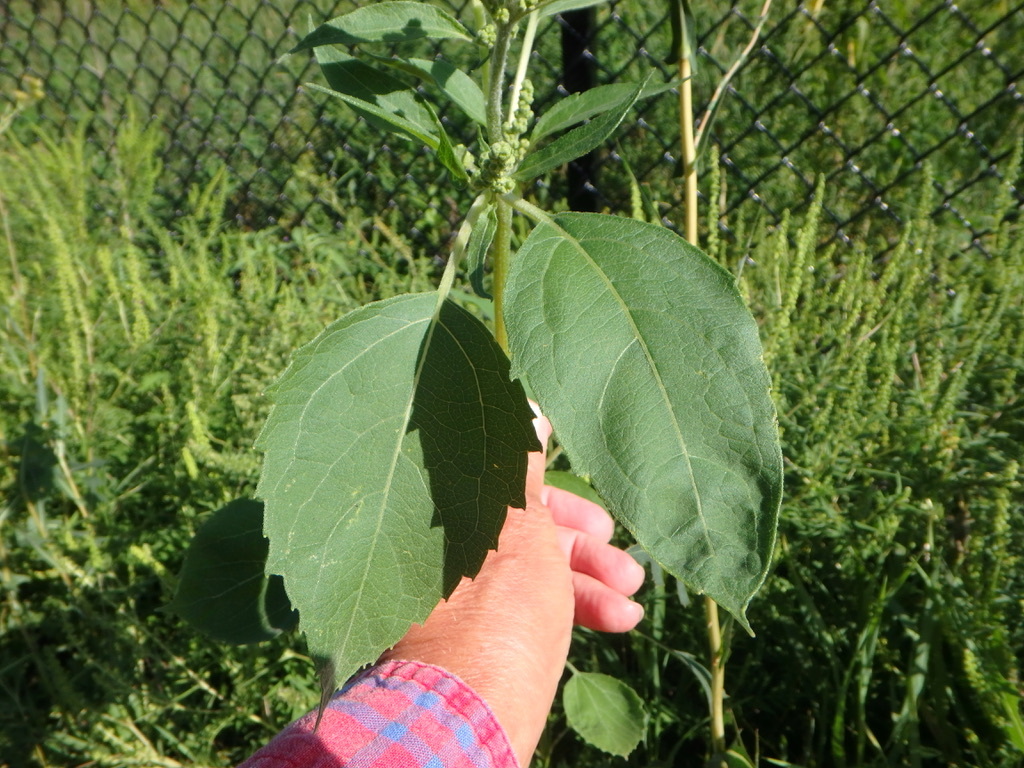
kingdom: Plantae
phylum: Tracheophyta
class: Magnoliopsida
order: Asterales
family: Asteraceae
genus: Cyclachaena
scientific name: Cyclachaena xanthiifolia
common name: Giant sumpweed
